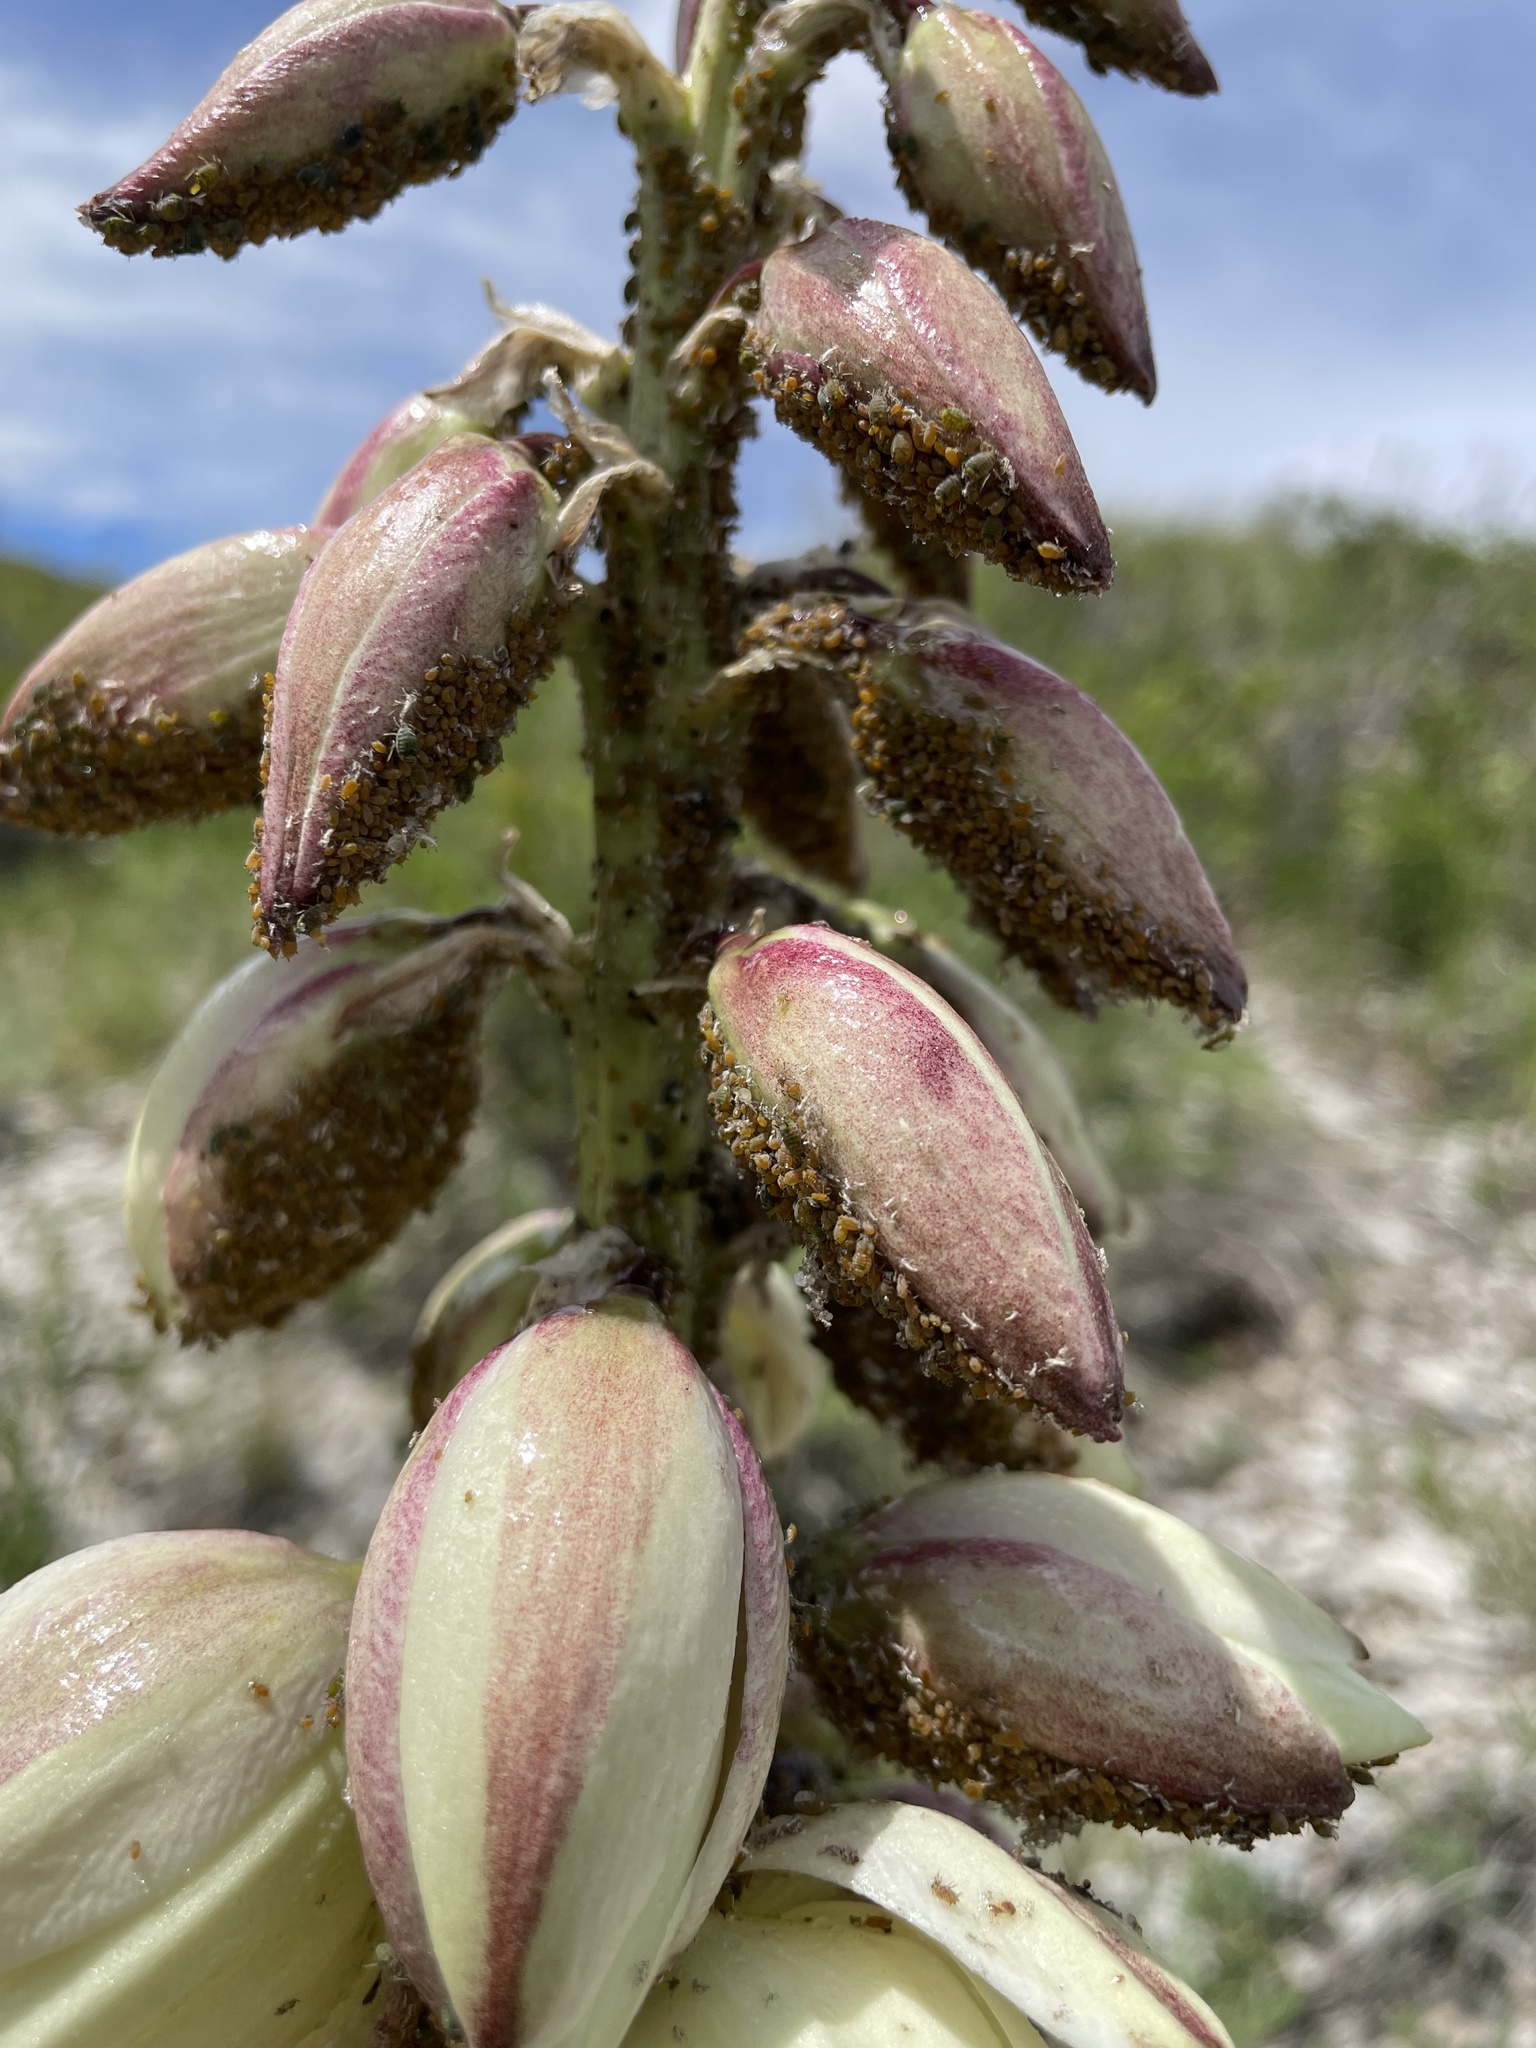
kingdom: Plantae
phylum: Tracheophyta
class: Liliopsida
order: Asparagales
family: Asparagaceae
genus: Yucca
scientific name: Yucca glauca
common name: Great plains yucca
